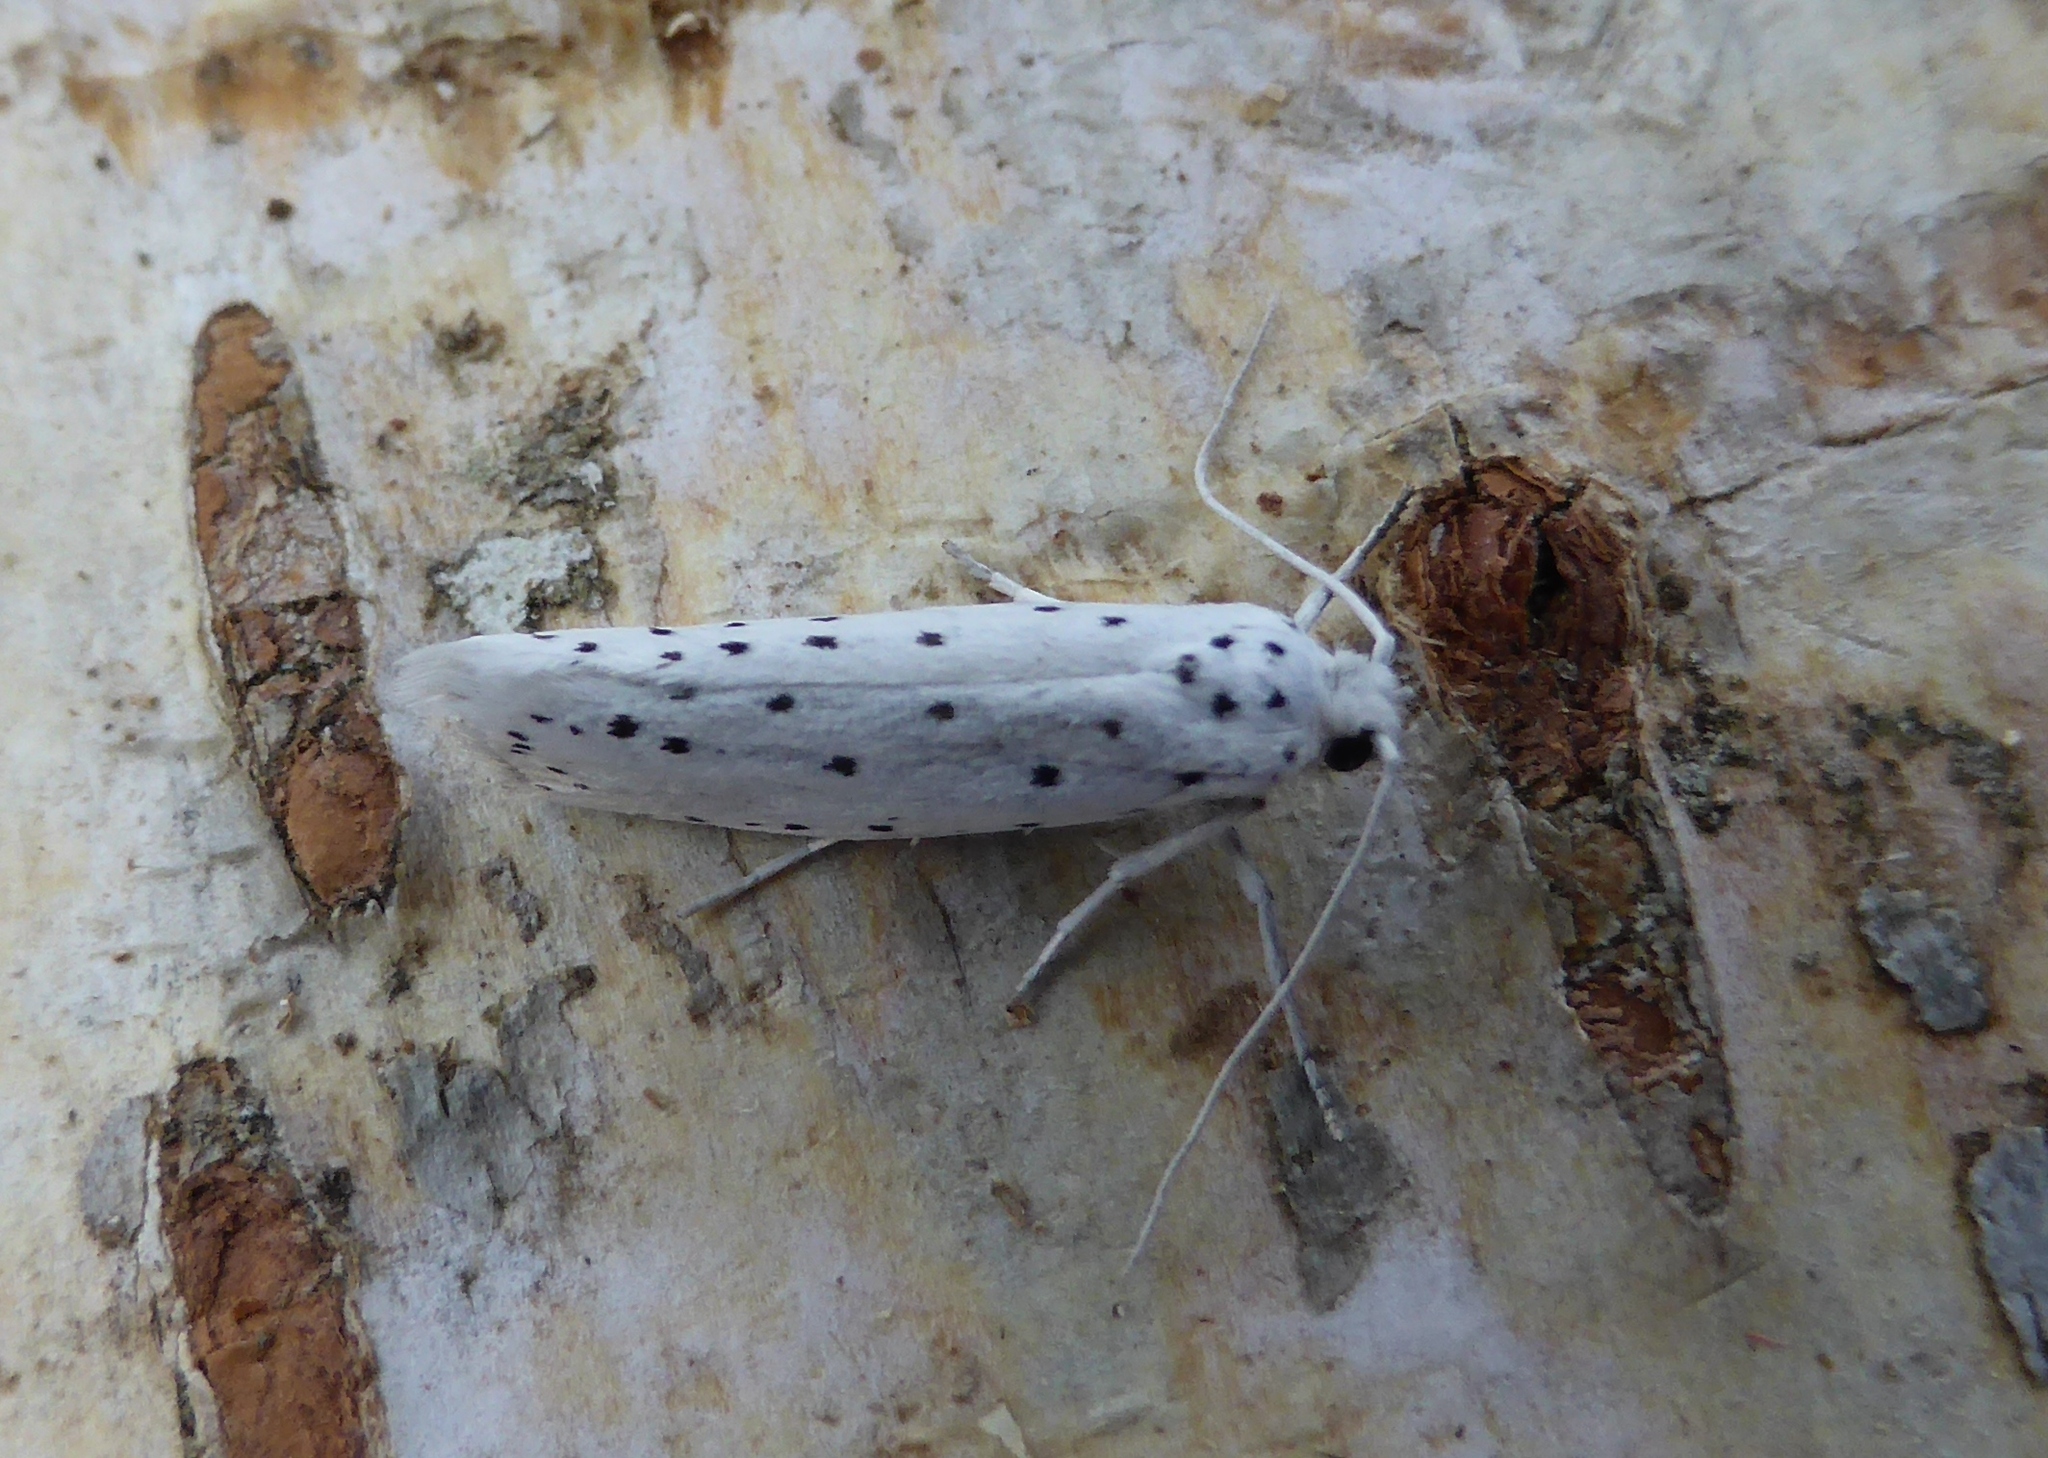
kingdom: Animalia
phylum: Arthropoda
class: Insecta
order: Lepidoptera
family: Yponomeutidae
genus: Yponomeuta
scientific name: Yponomeuta
